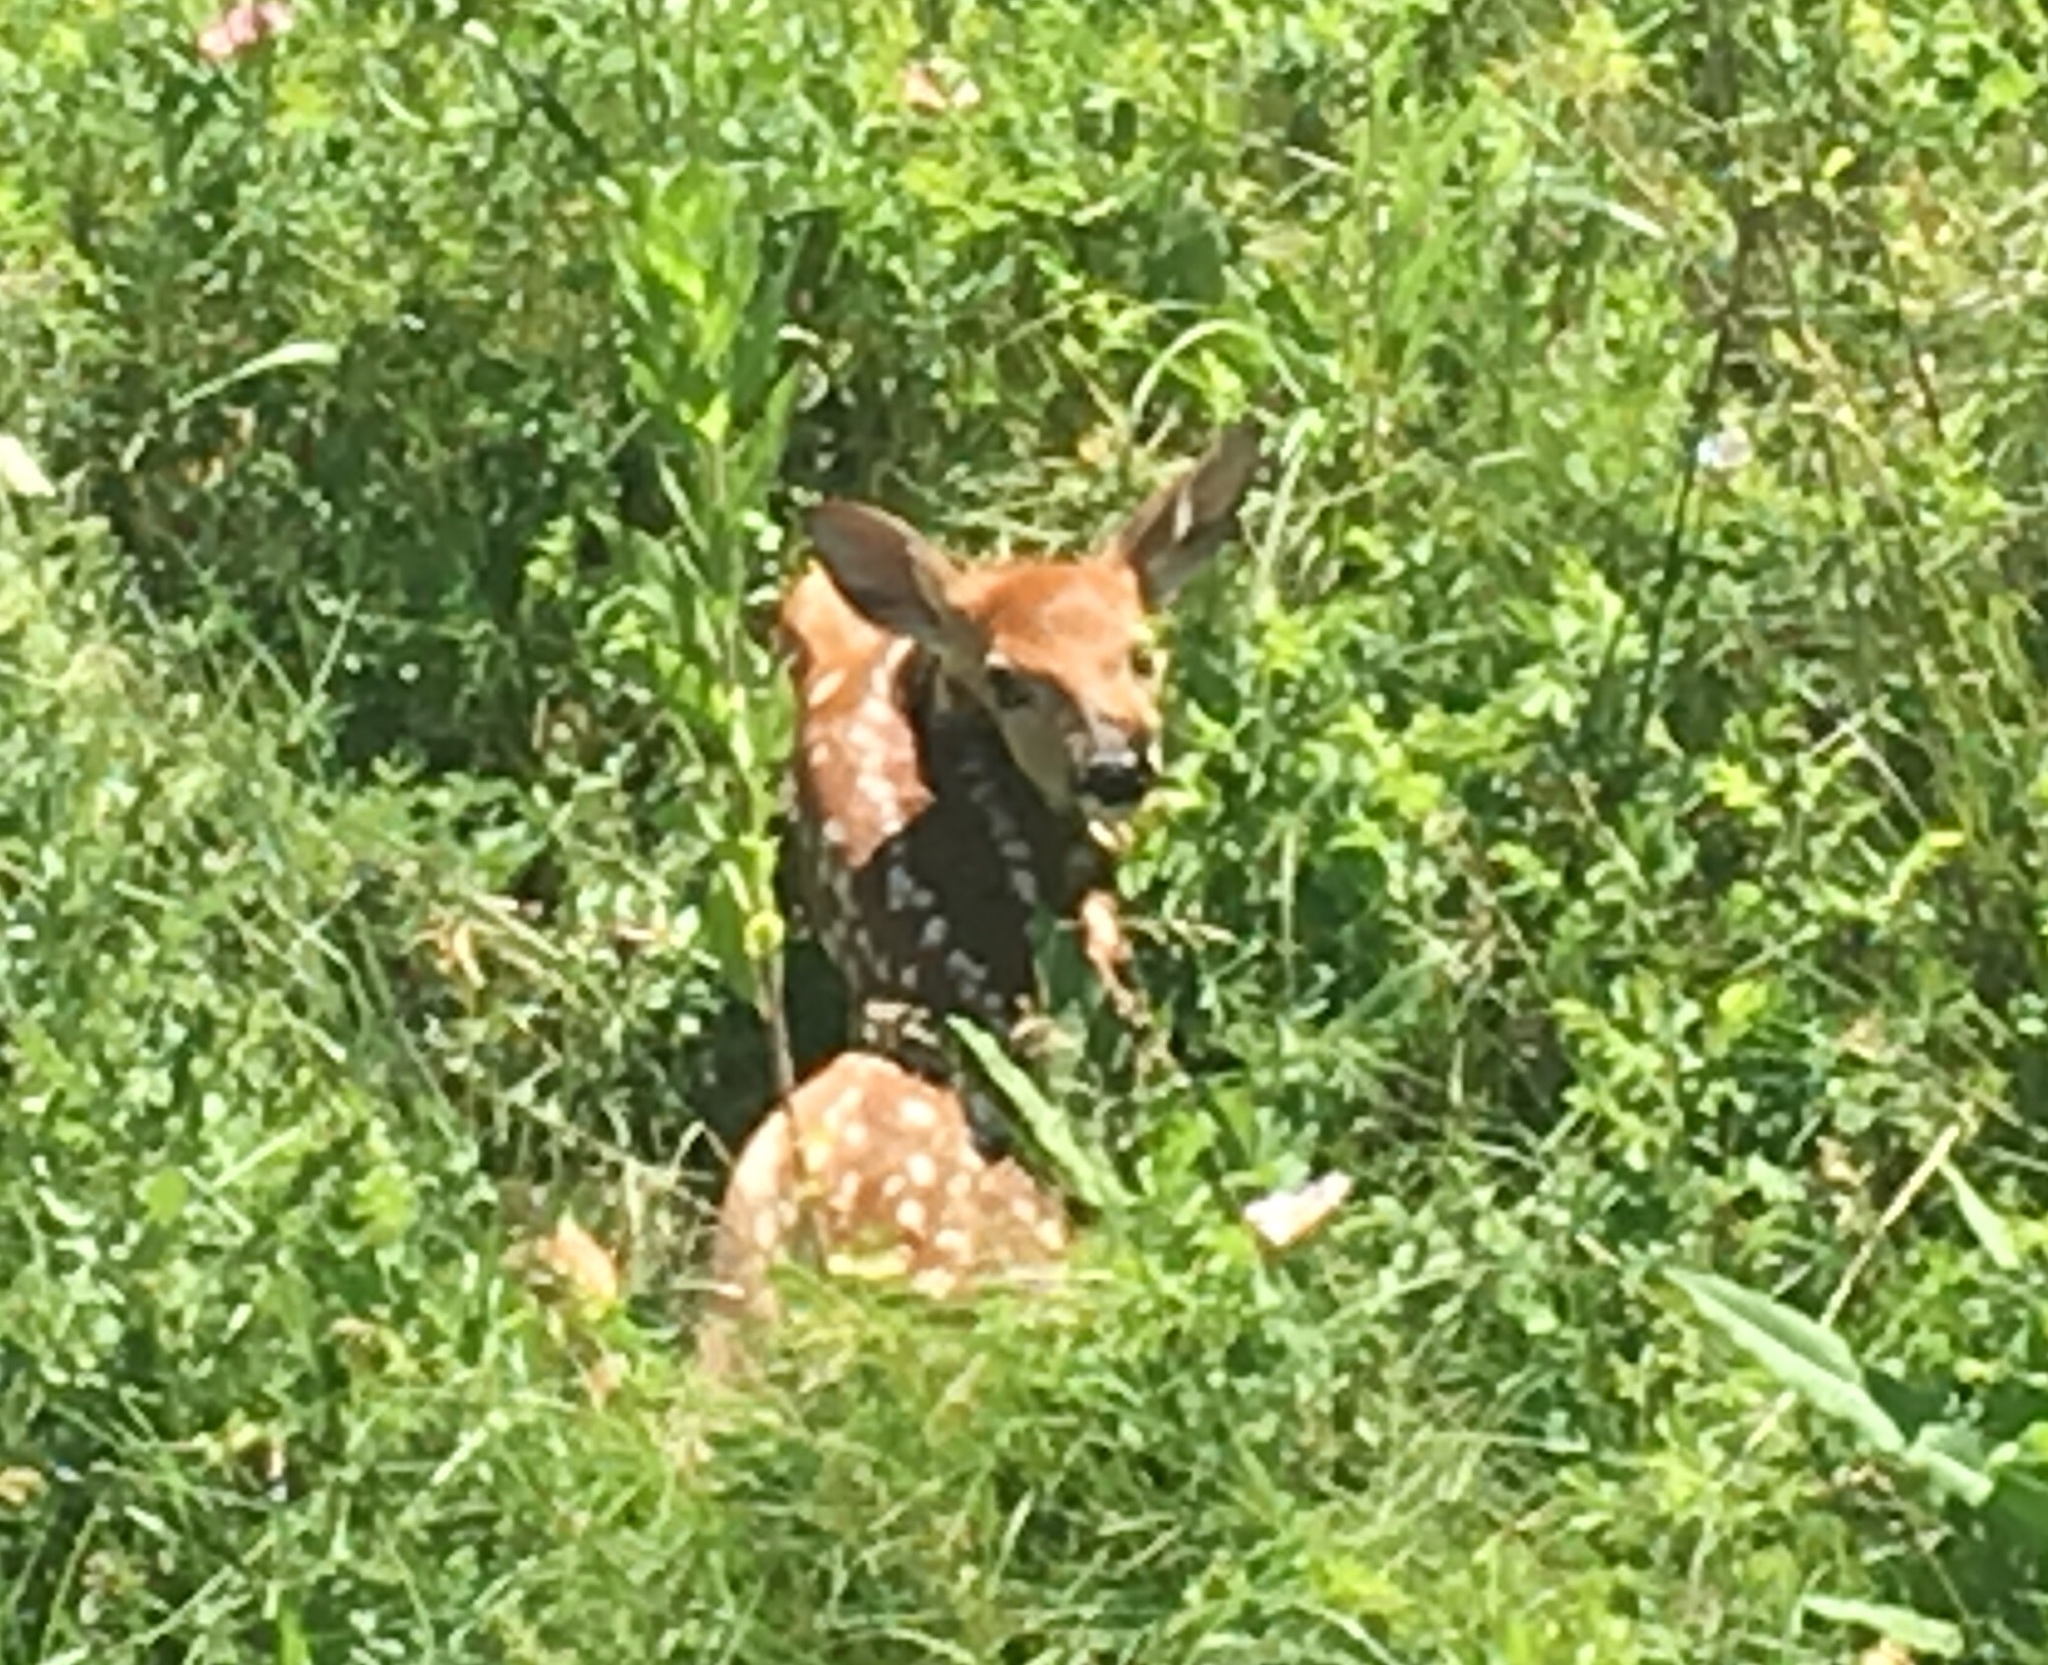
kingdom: Animalia
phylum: Chordata
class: Mammalia
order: Artiodactyla
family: Cervidae
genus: Odocoileus
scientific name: Odocoileus virginianus
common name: White-tailed deer
